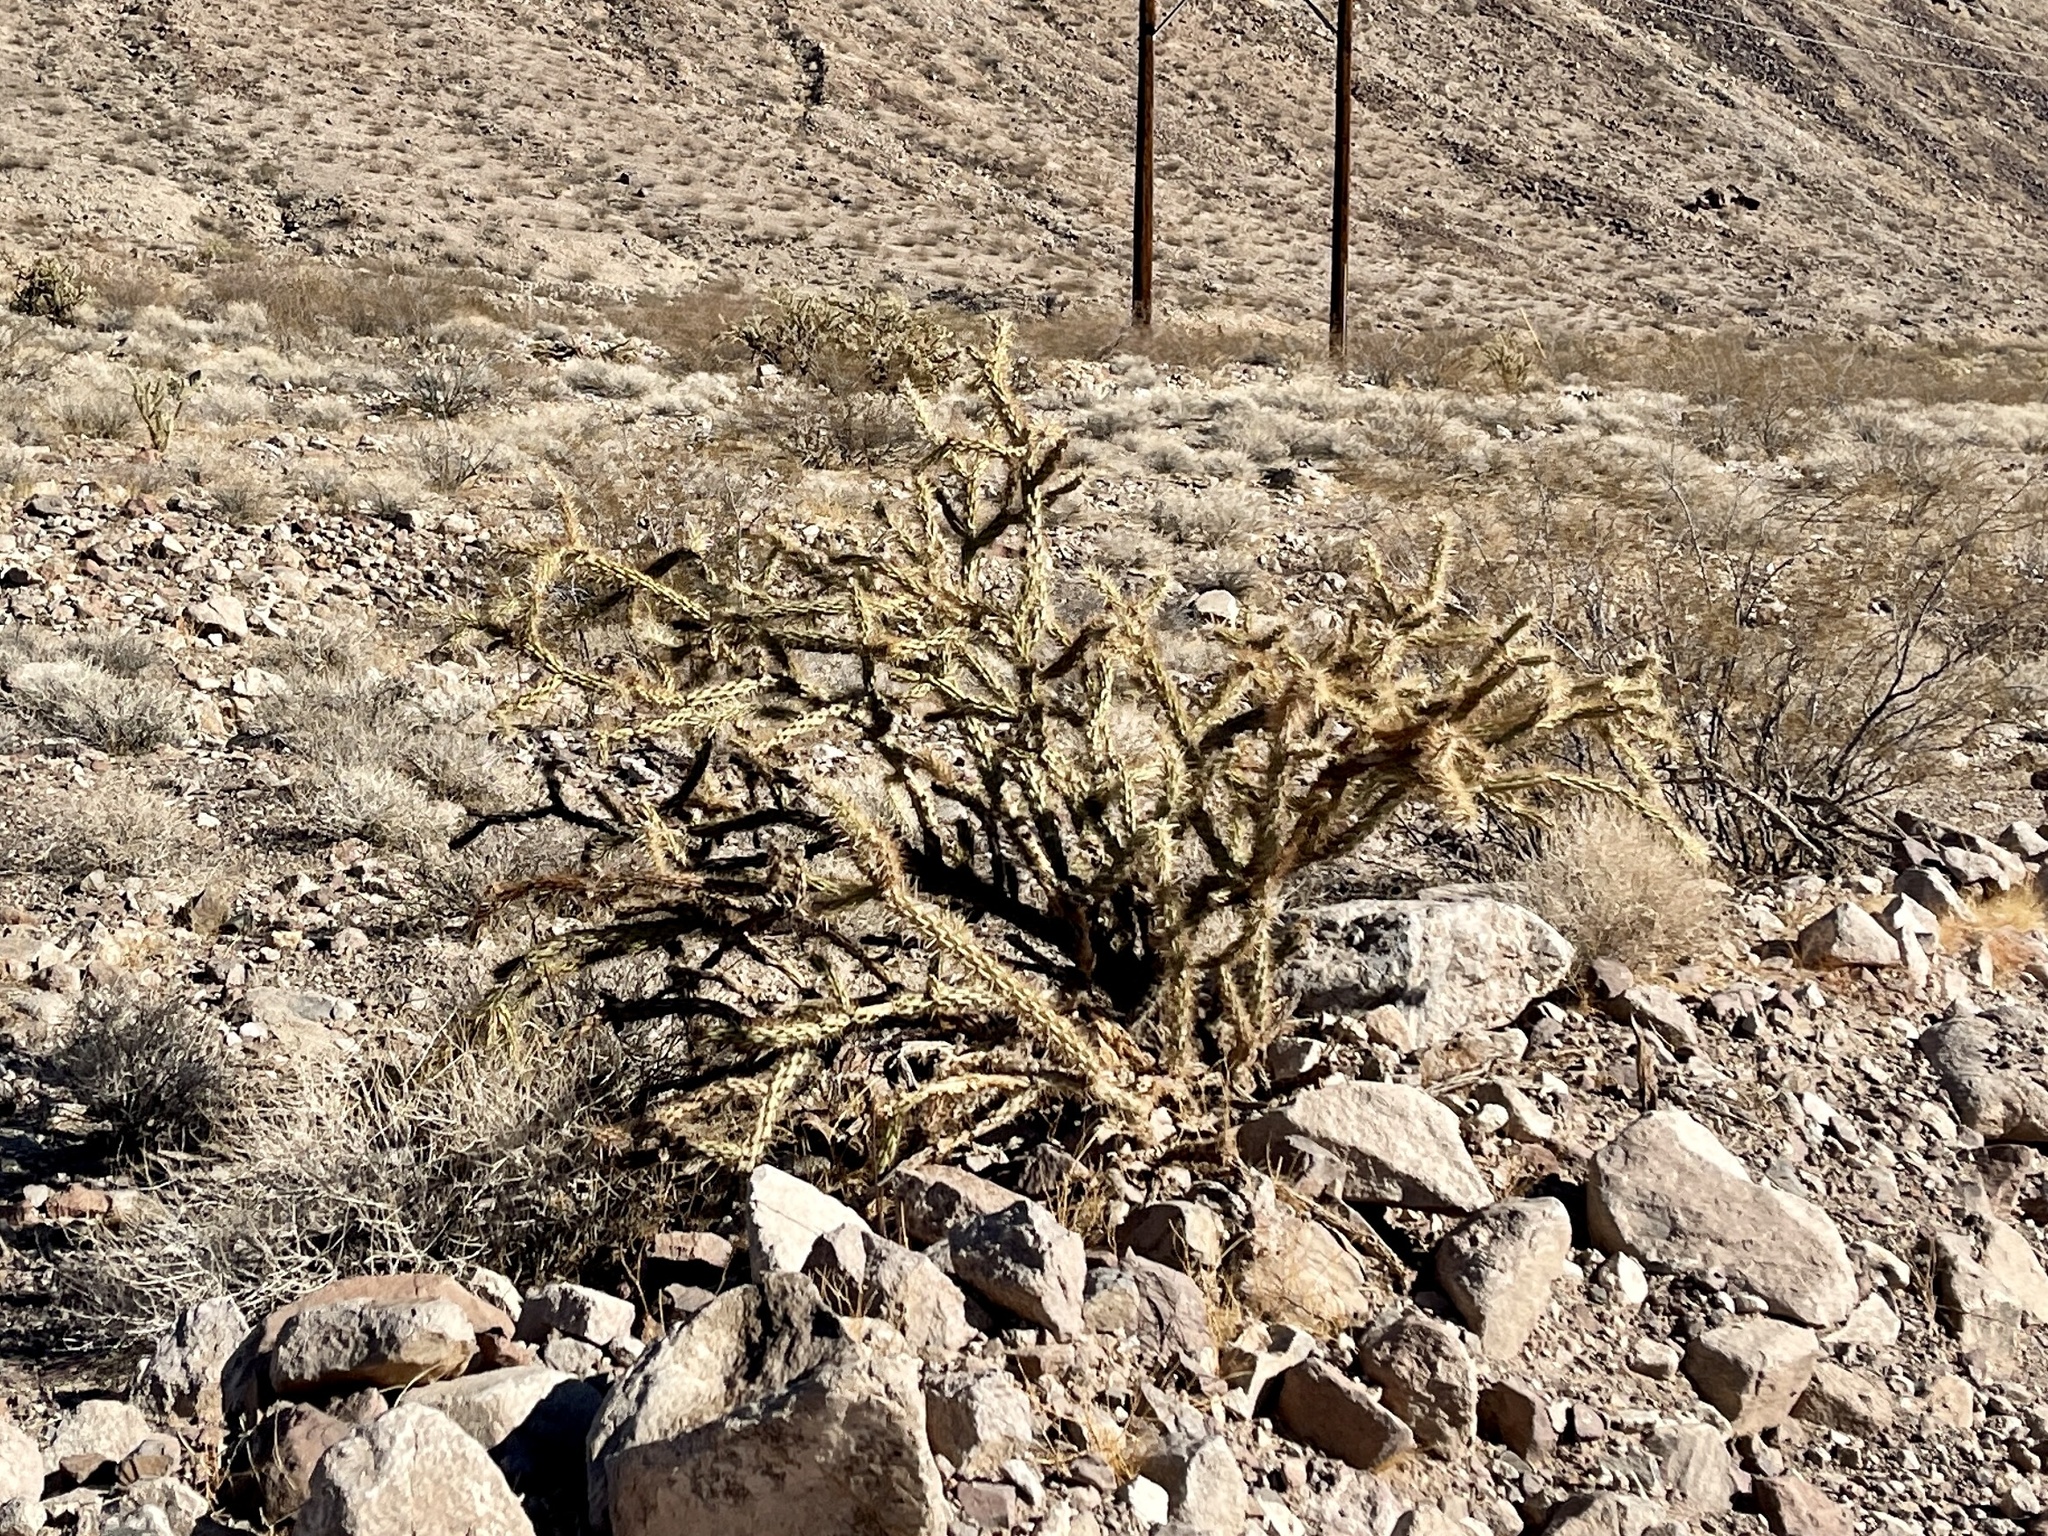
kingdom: Plantae
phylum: Tracheophyta
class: Magnoliopsida
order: Caryophyllales
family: Cactaceae
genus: Cylindropuntia
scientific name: Cylindropuntia acanthocarpa
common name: Buckhorn cholla
